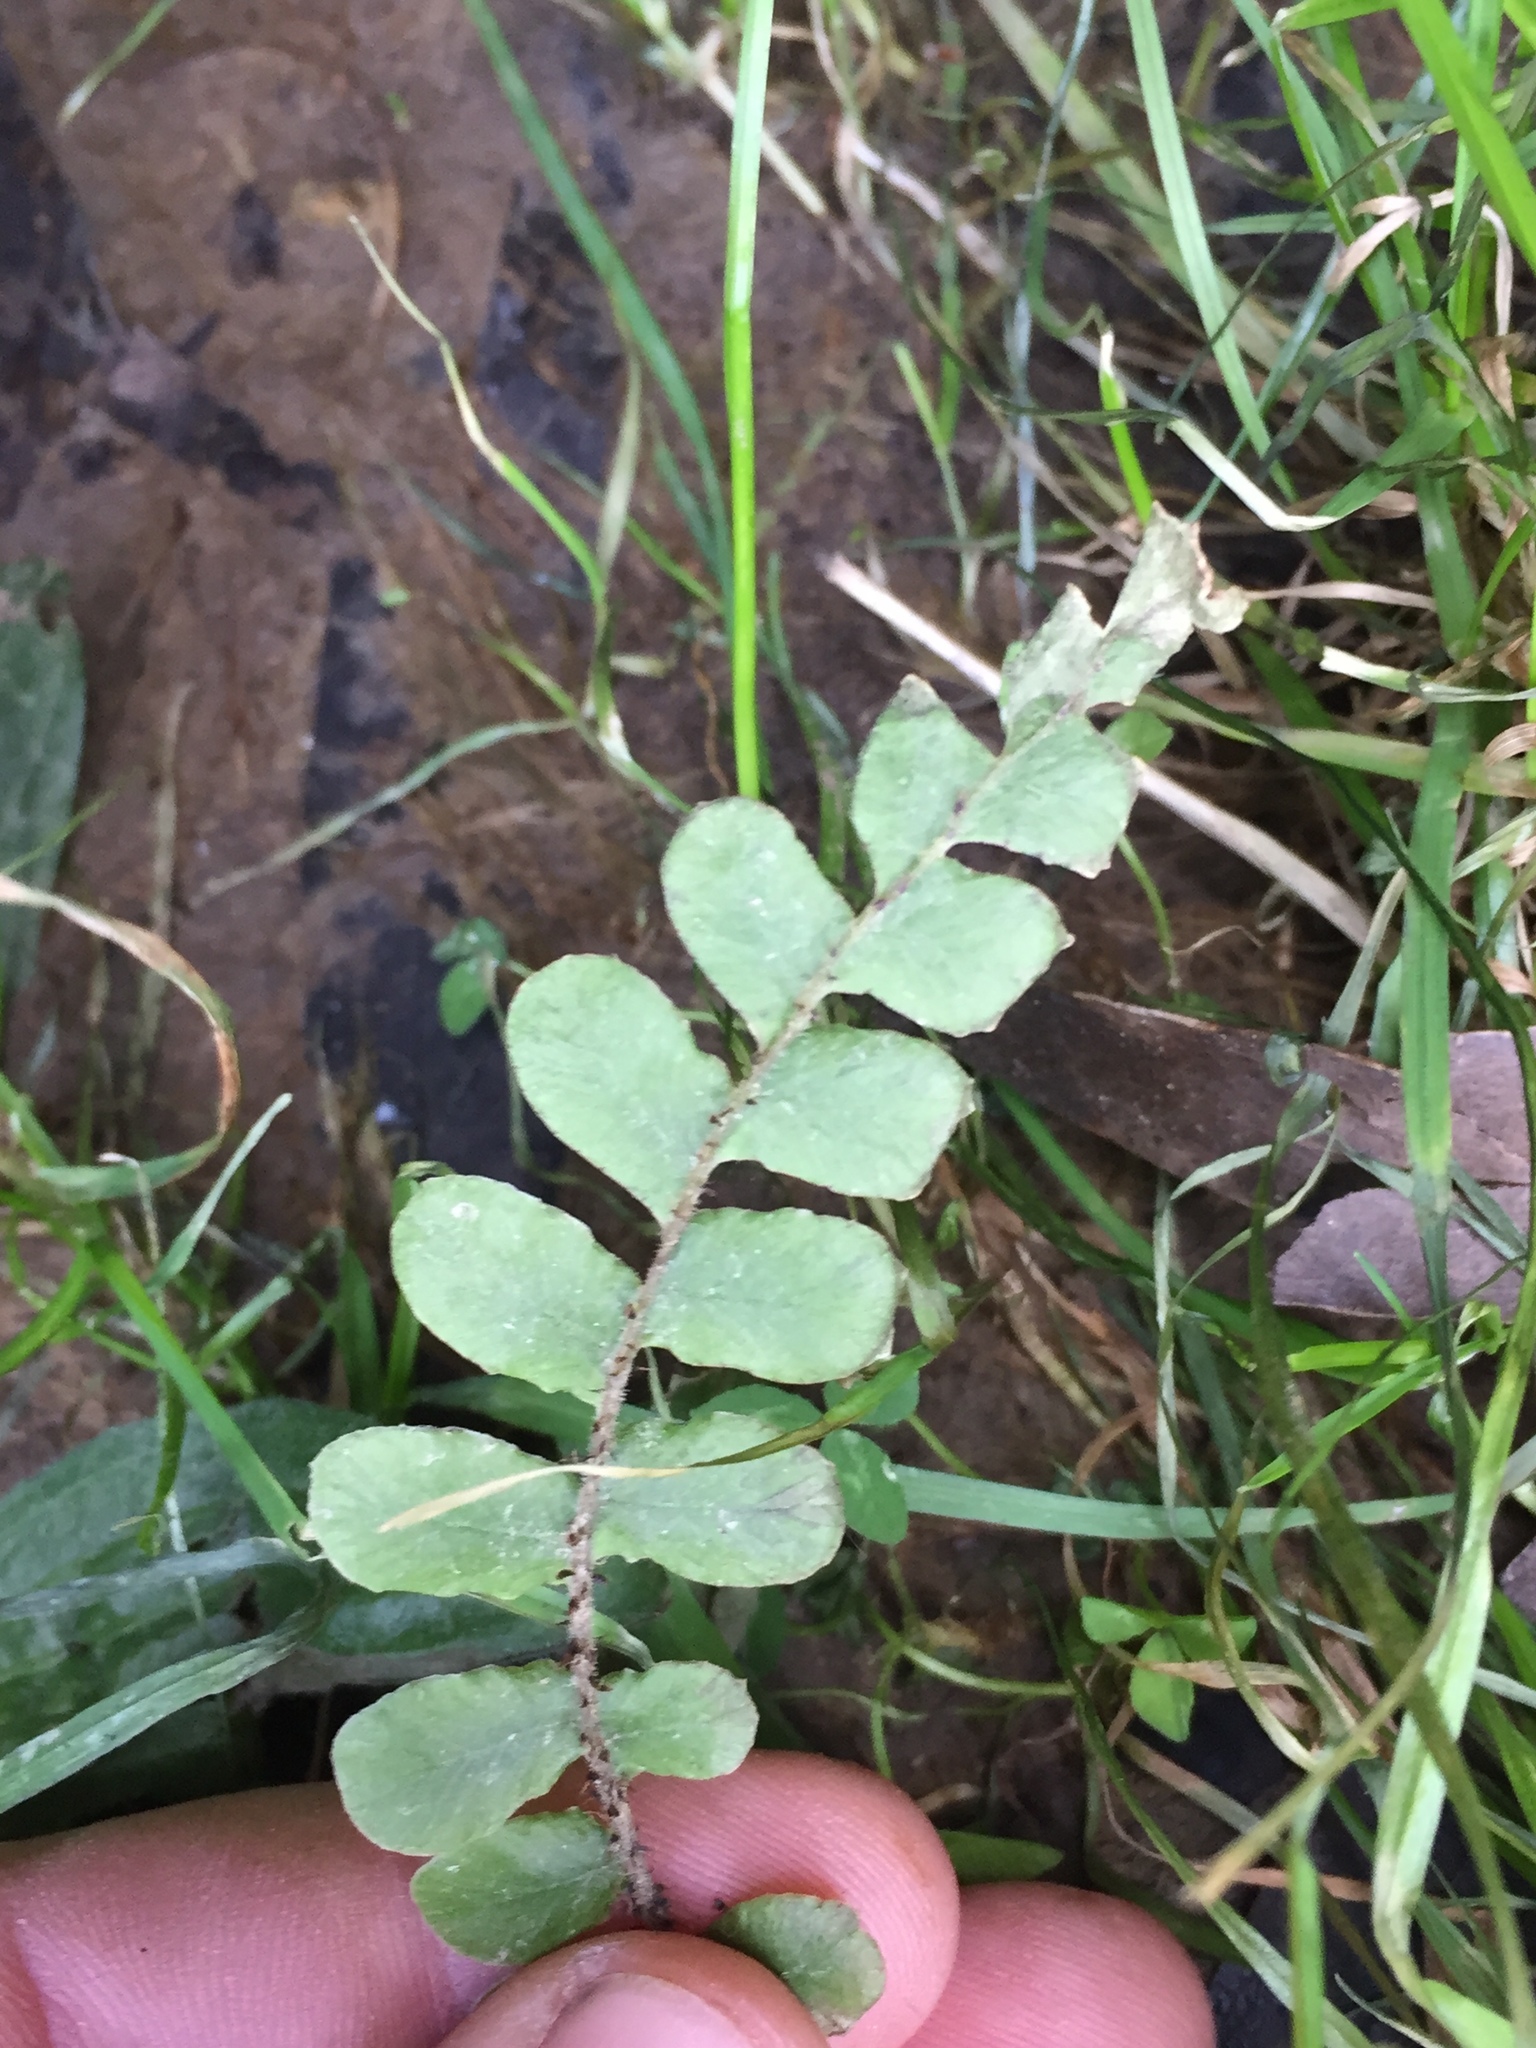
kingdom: Plantae
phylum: Tracheophyta
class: Polypodiopsida
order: Polypodiales
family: Blechnaceae
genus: Cranfillia
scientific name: Cranfillia fluviatilis
